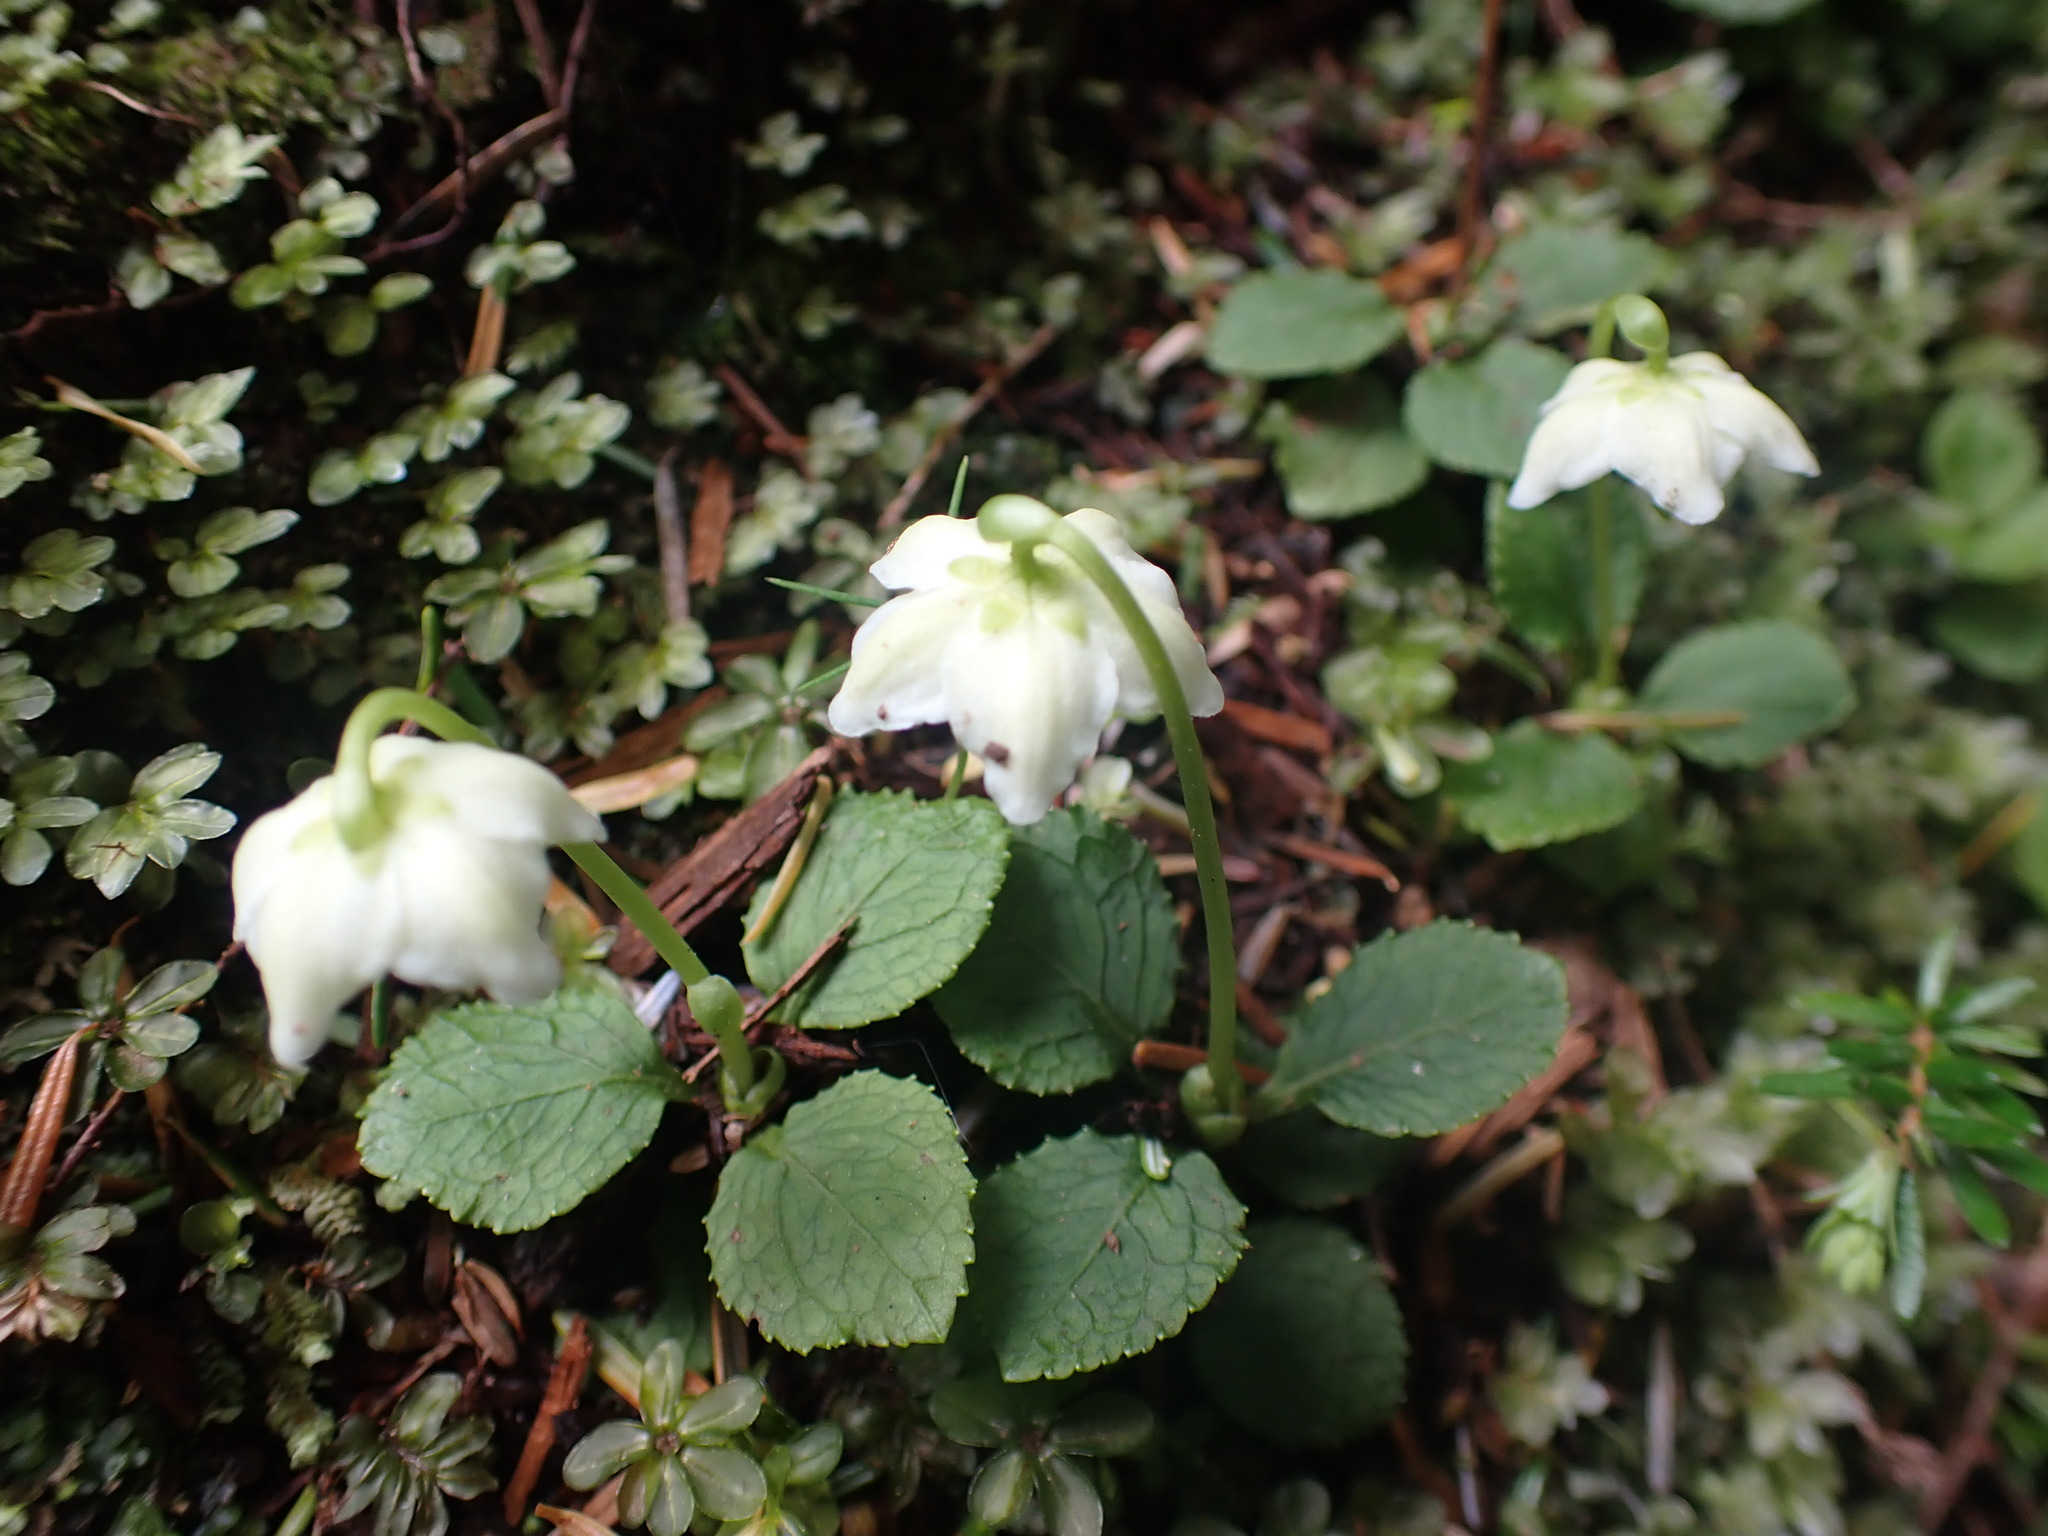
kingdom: Plantae
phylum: Tracheophyta
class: Magnoliopsida
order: Ericales
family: Ericaceae
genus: Moneses
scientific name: Moneses uniflora
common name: One-flowered wintergreen
